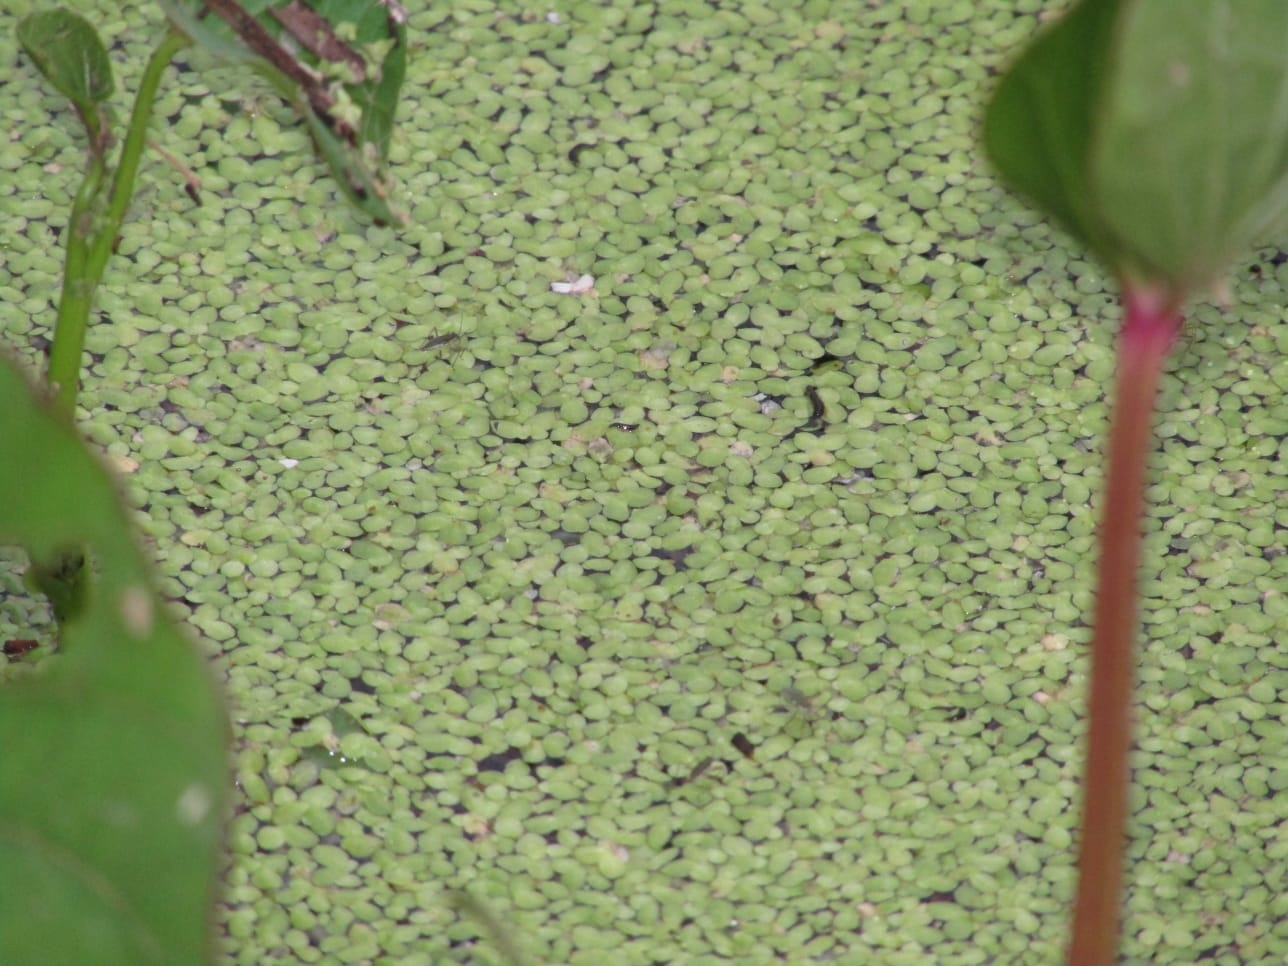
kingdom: Plantae
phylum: Tracheophyta
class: Liliopsida
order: Alismatales
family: Araceae
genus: Lemna
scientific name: Lemna
